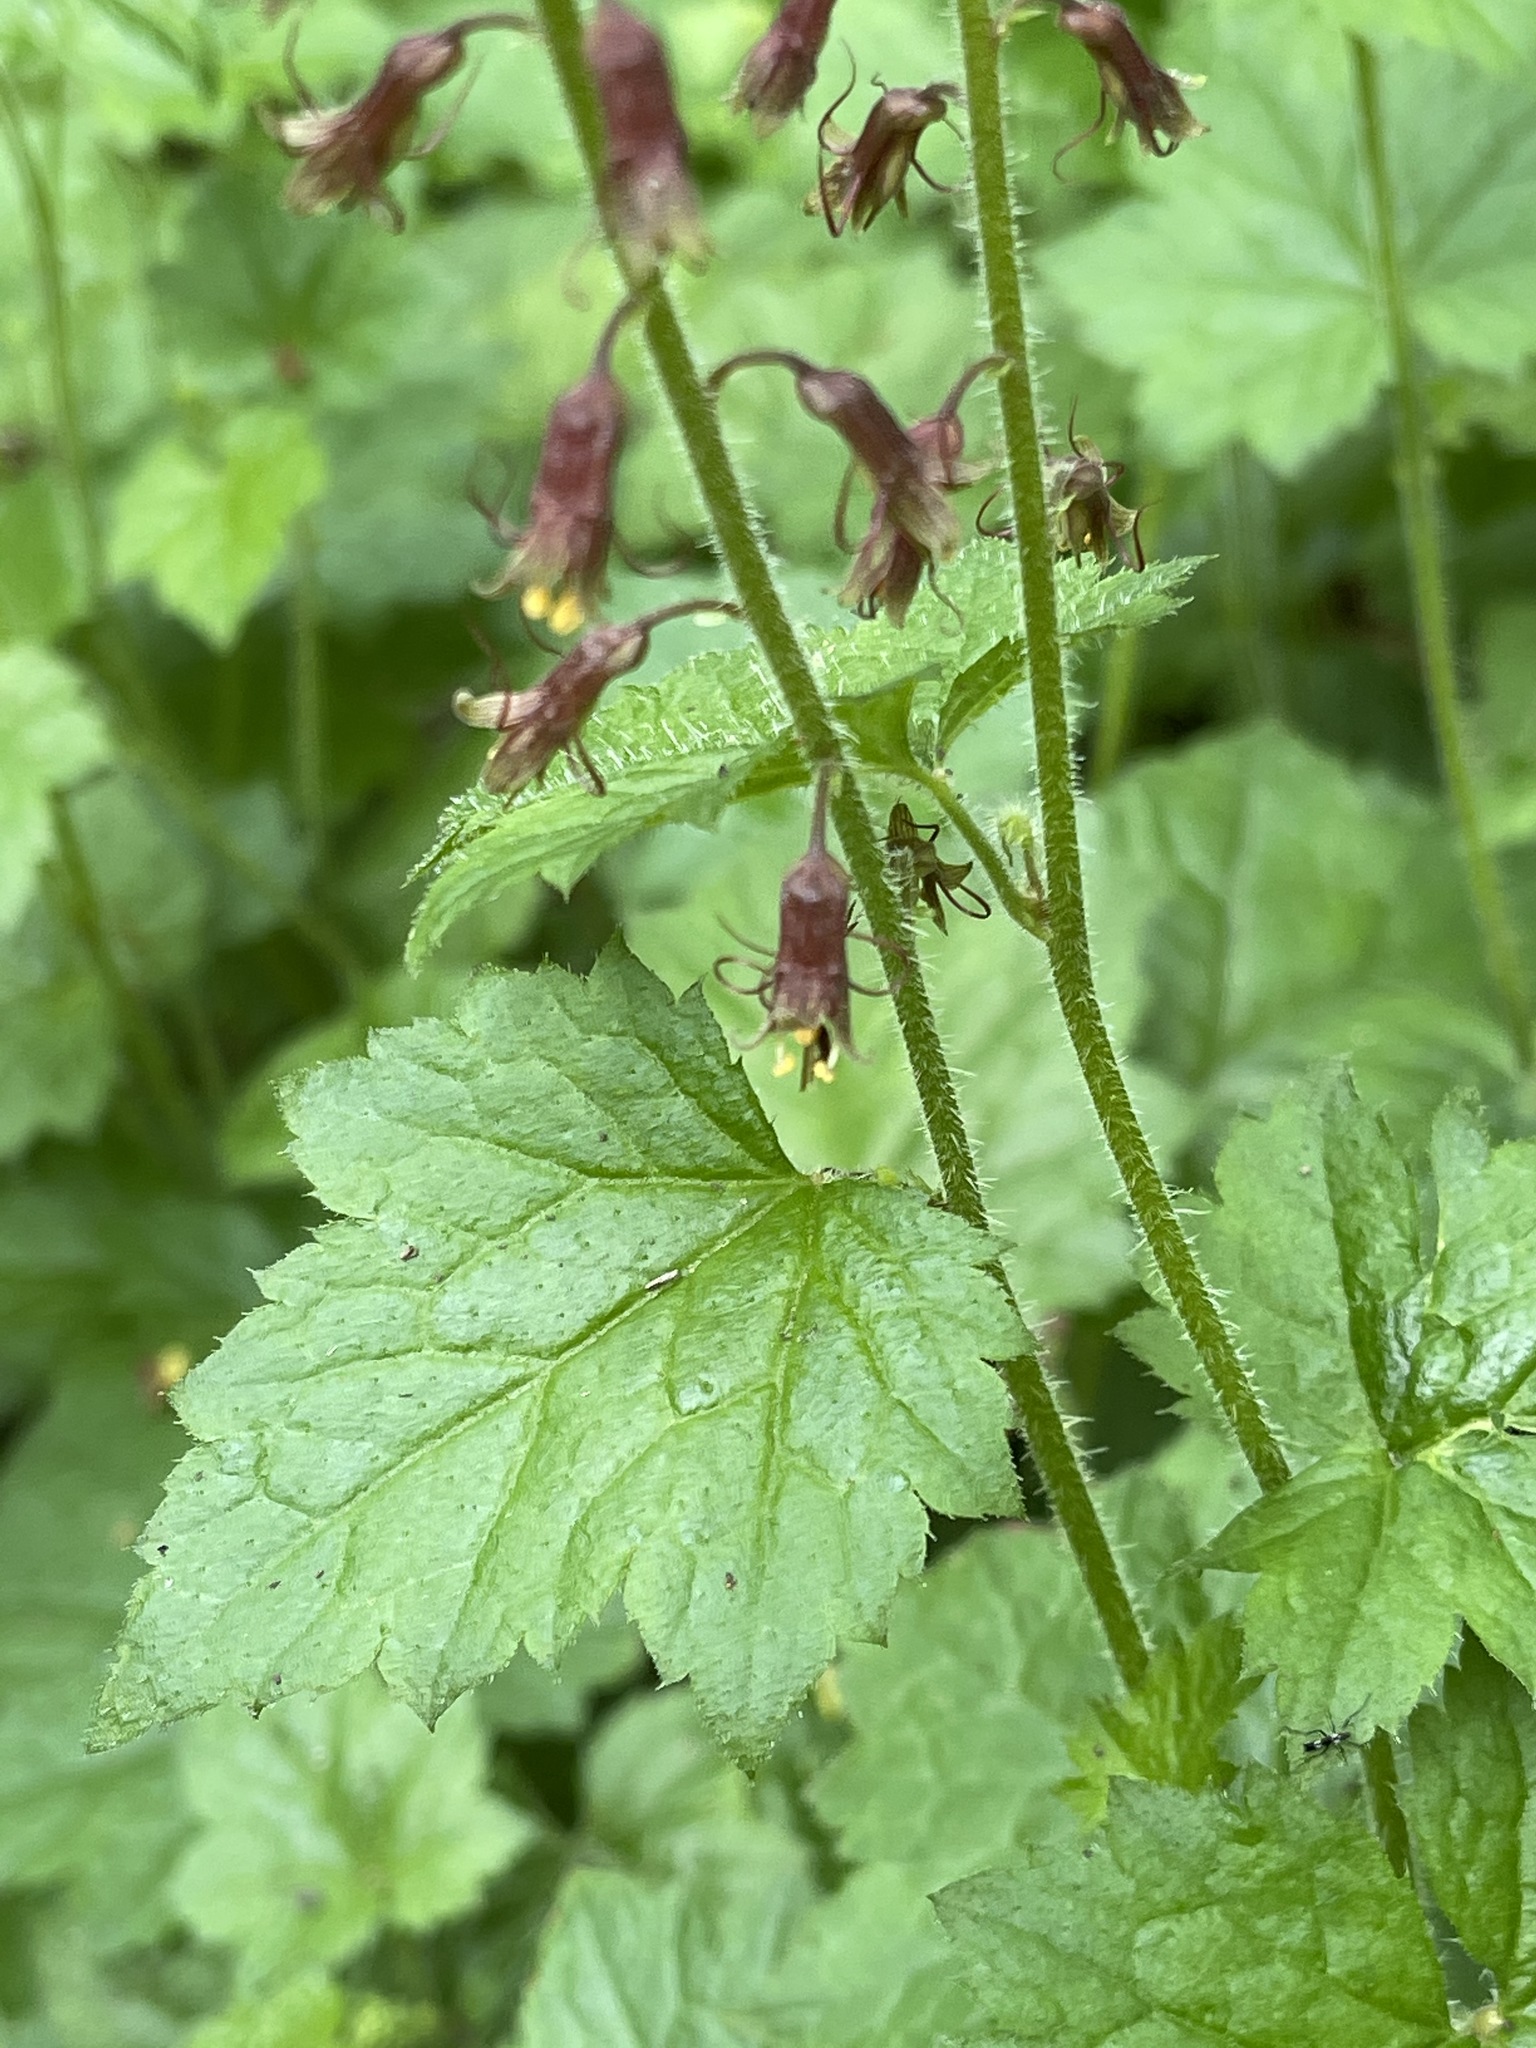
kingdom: Plantae
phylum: Tracheophyta
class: Magnoliopsida
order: Saxifragales
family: Saxifragaceae
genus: Tolmiea
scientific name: Tolmiea menziesii
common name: Pick-a-back-plant
